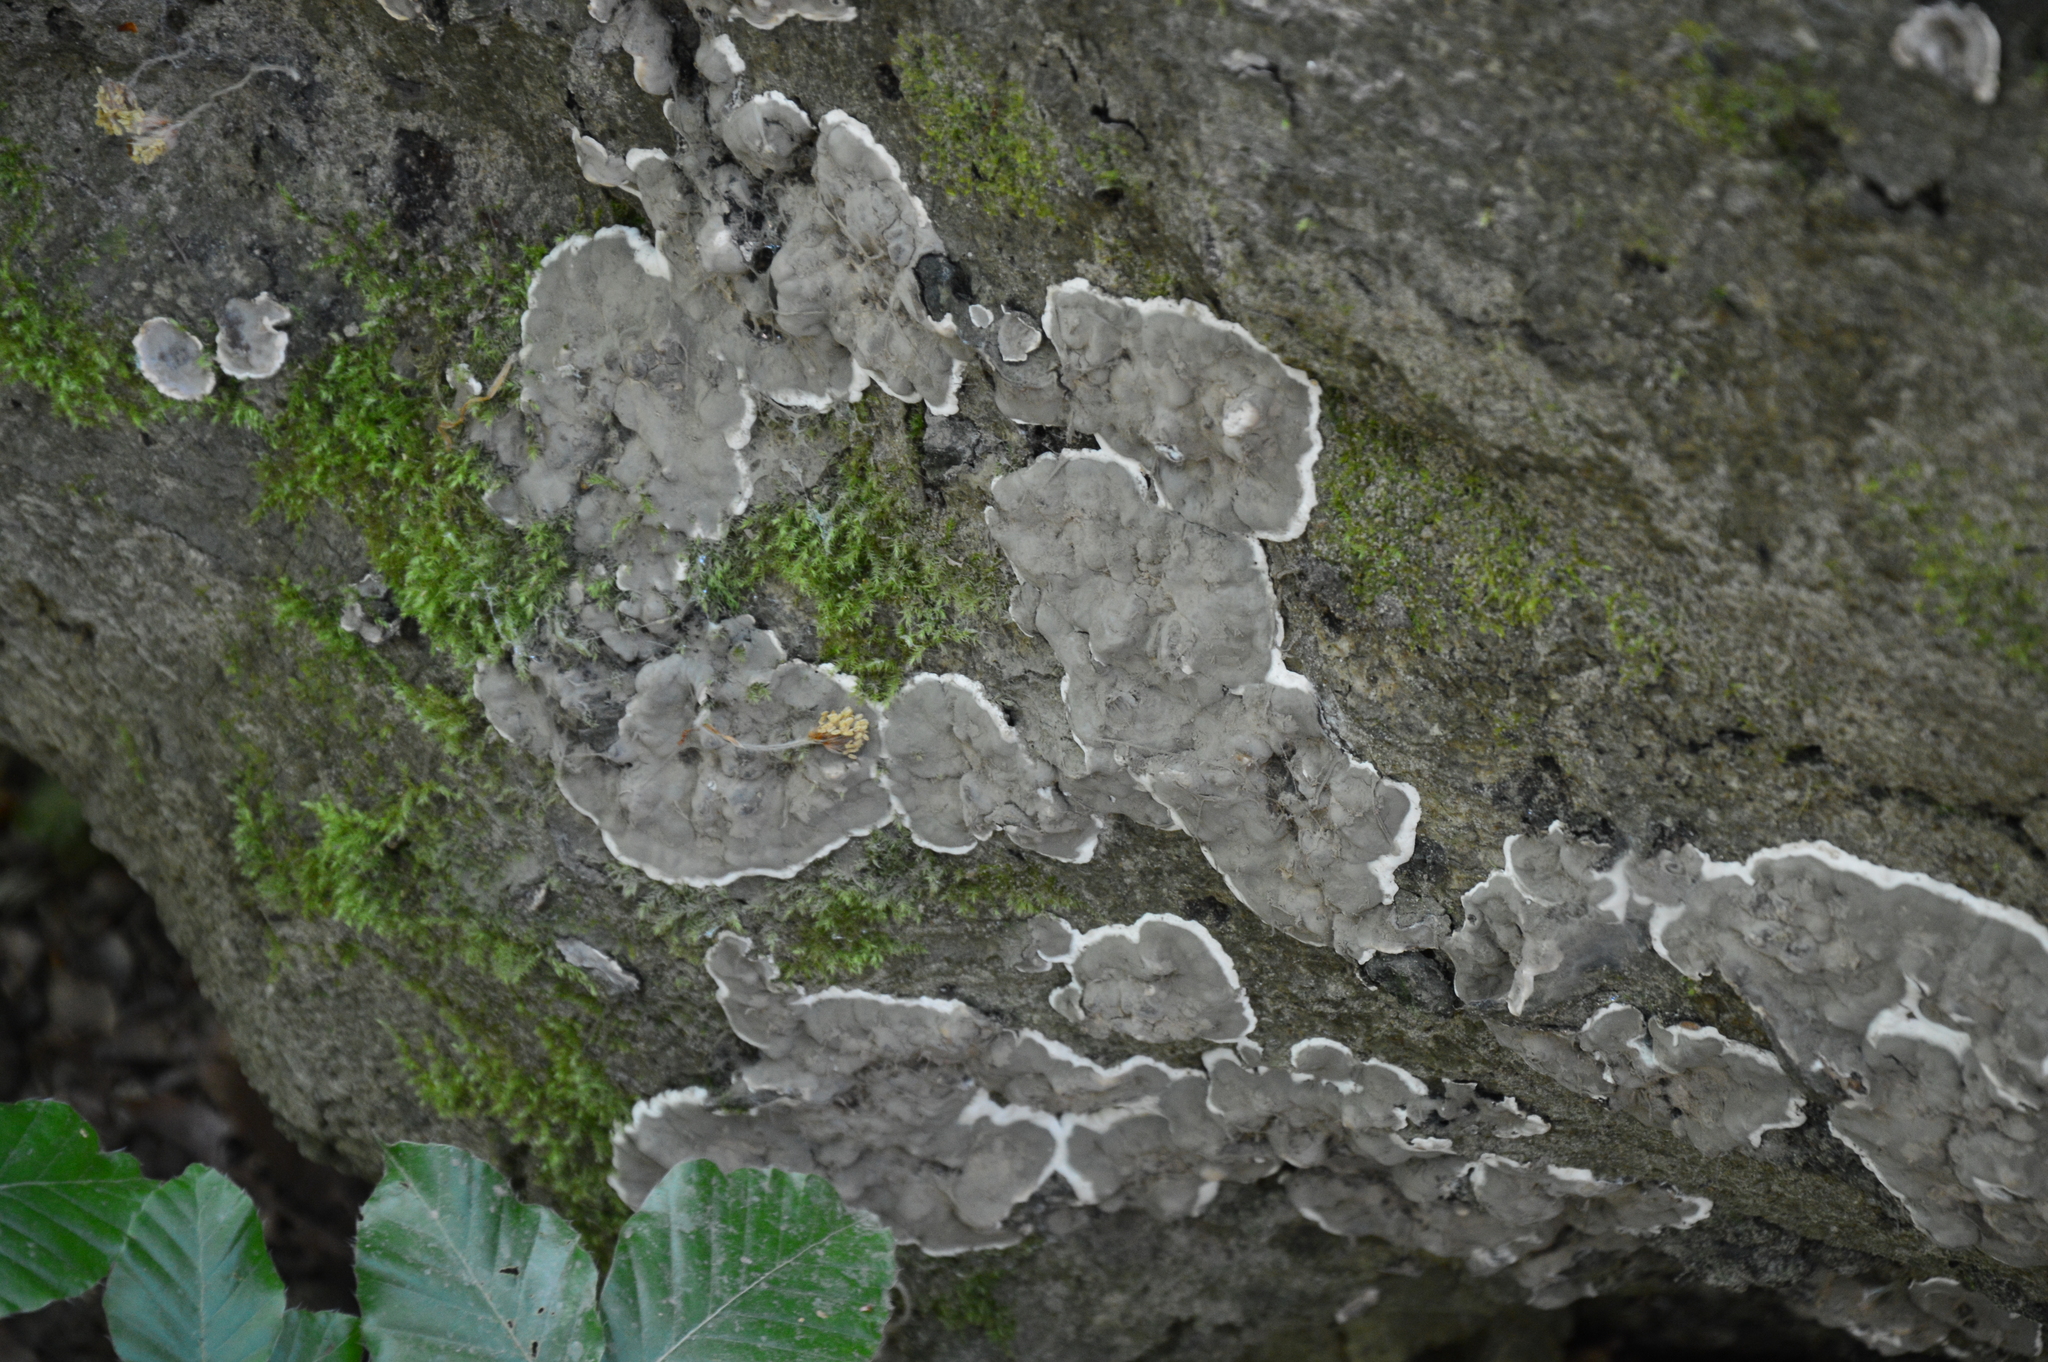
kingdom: Fungi
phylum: Ascomycota
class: Sordariomycetes
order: Xylariales
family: Xylariaceae
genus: Kretzschmaria
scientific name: Kretzschmaria deusta
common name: Brittle cinder
